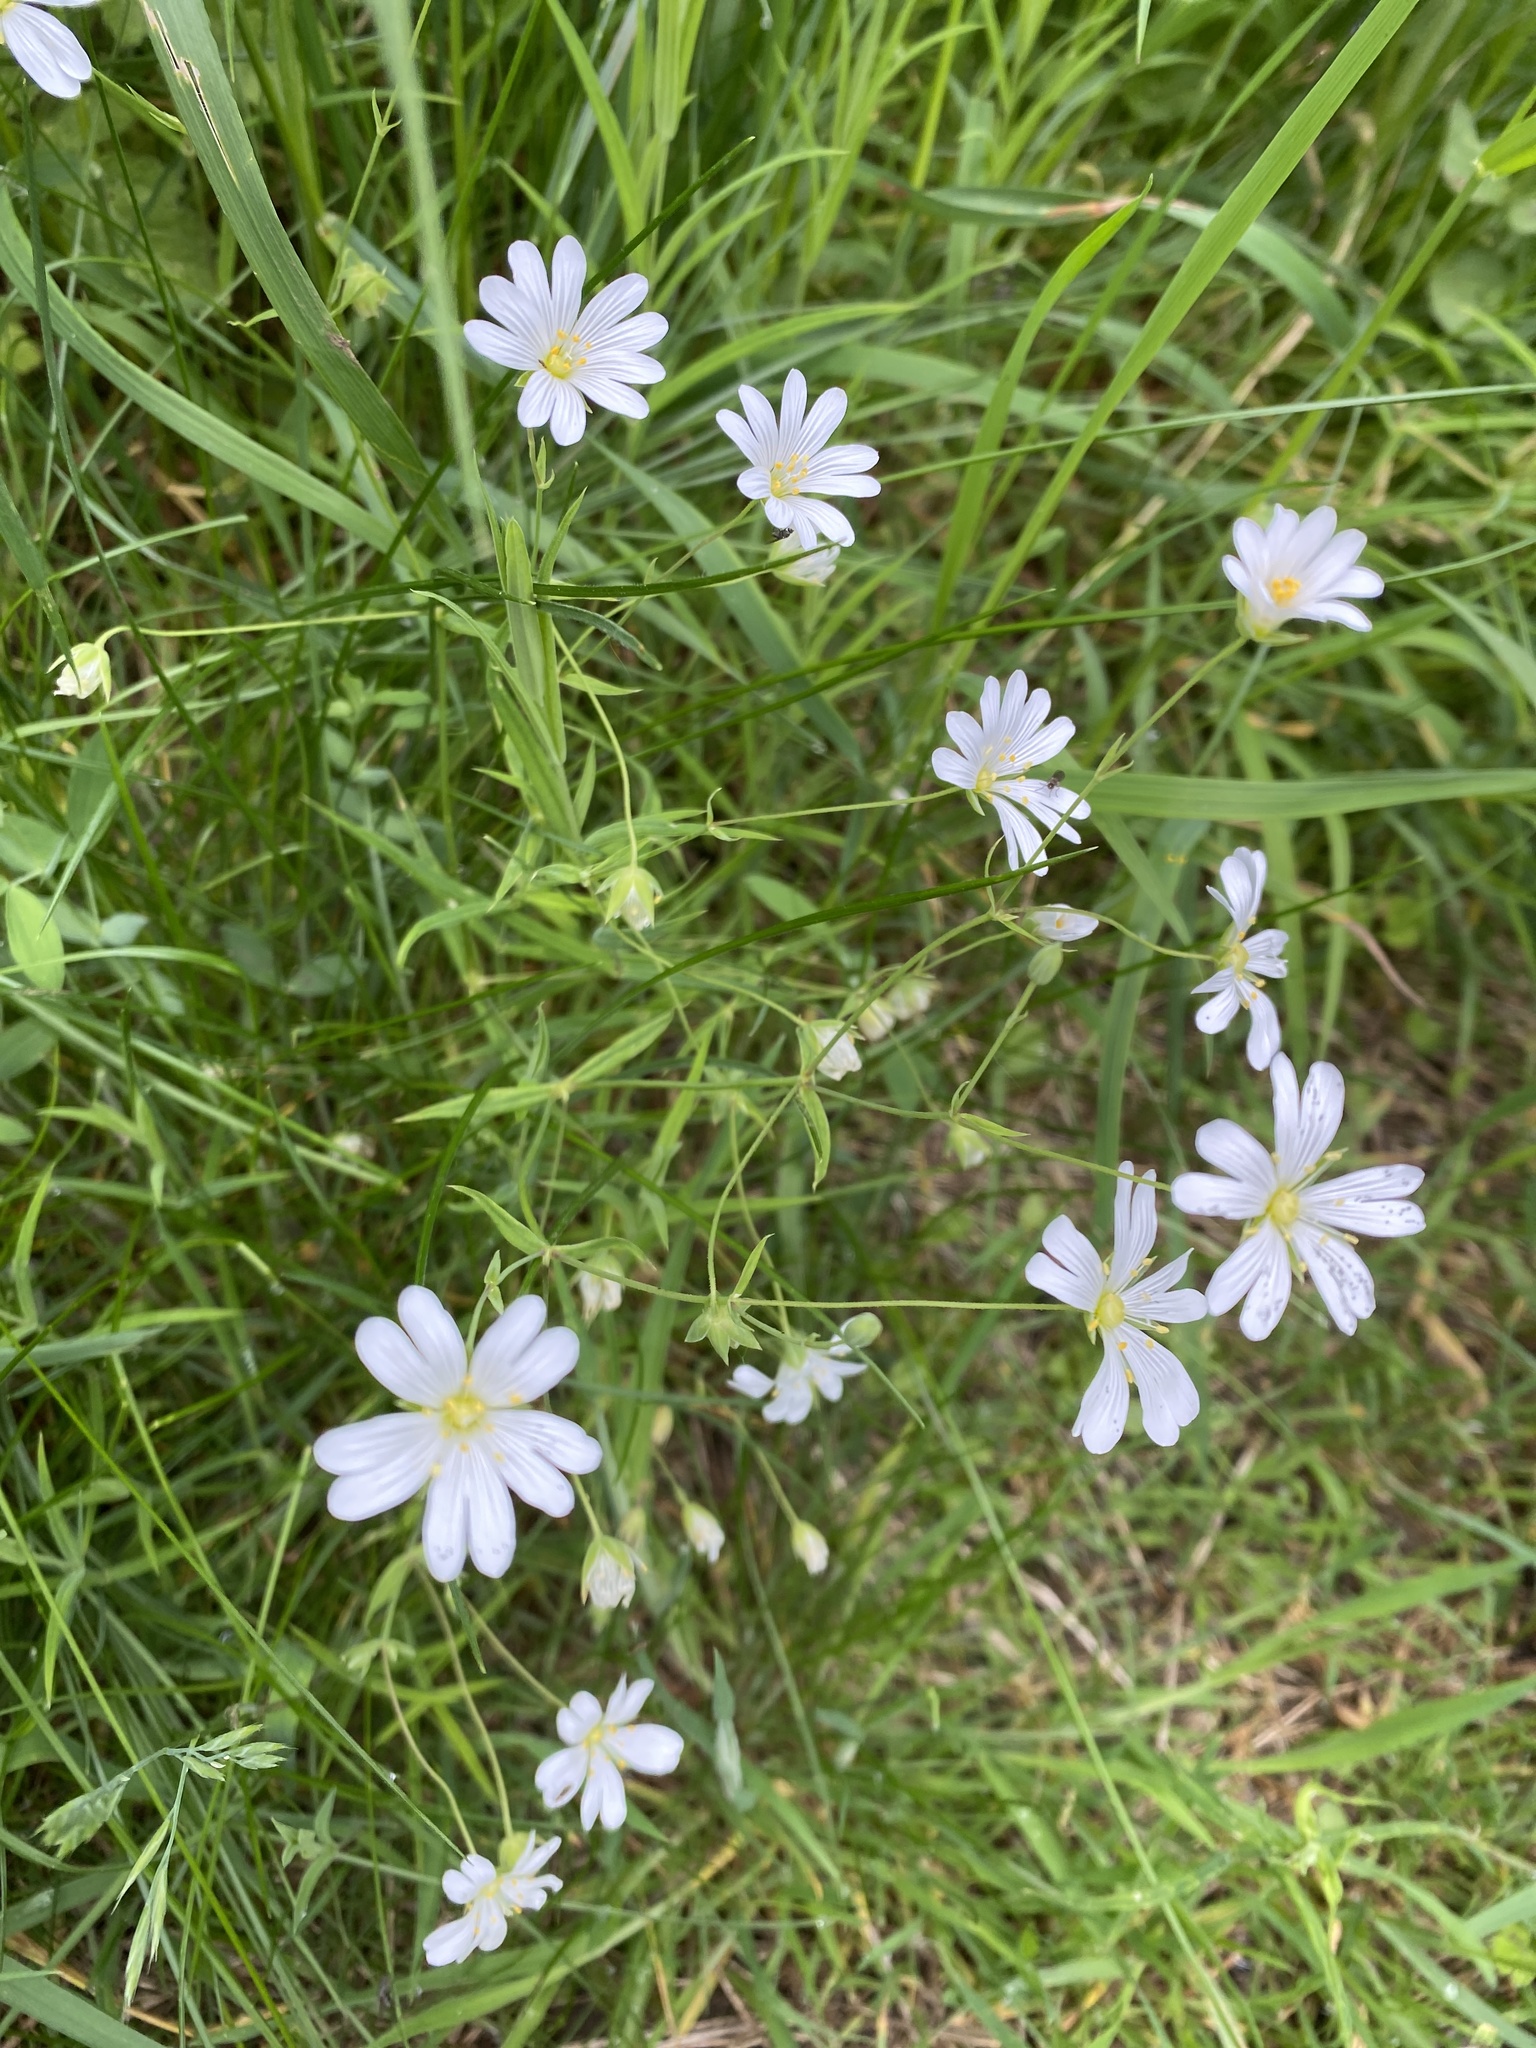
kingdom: Plantae
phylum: Tracheophyta
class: Magnoliopsida
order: Caryophyllales
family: Caryophyllaceae
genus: Rabelera
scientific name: Rabelera holostea
